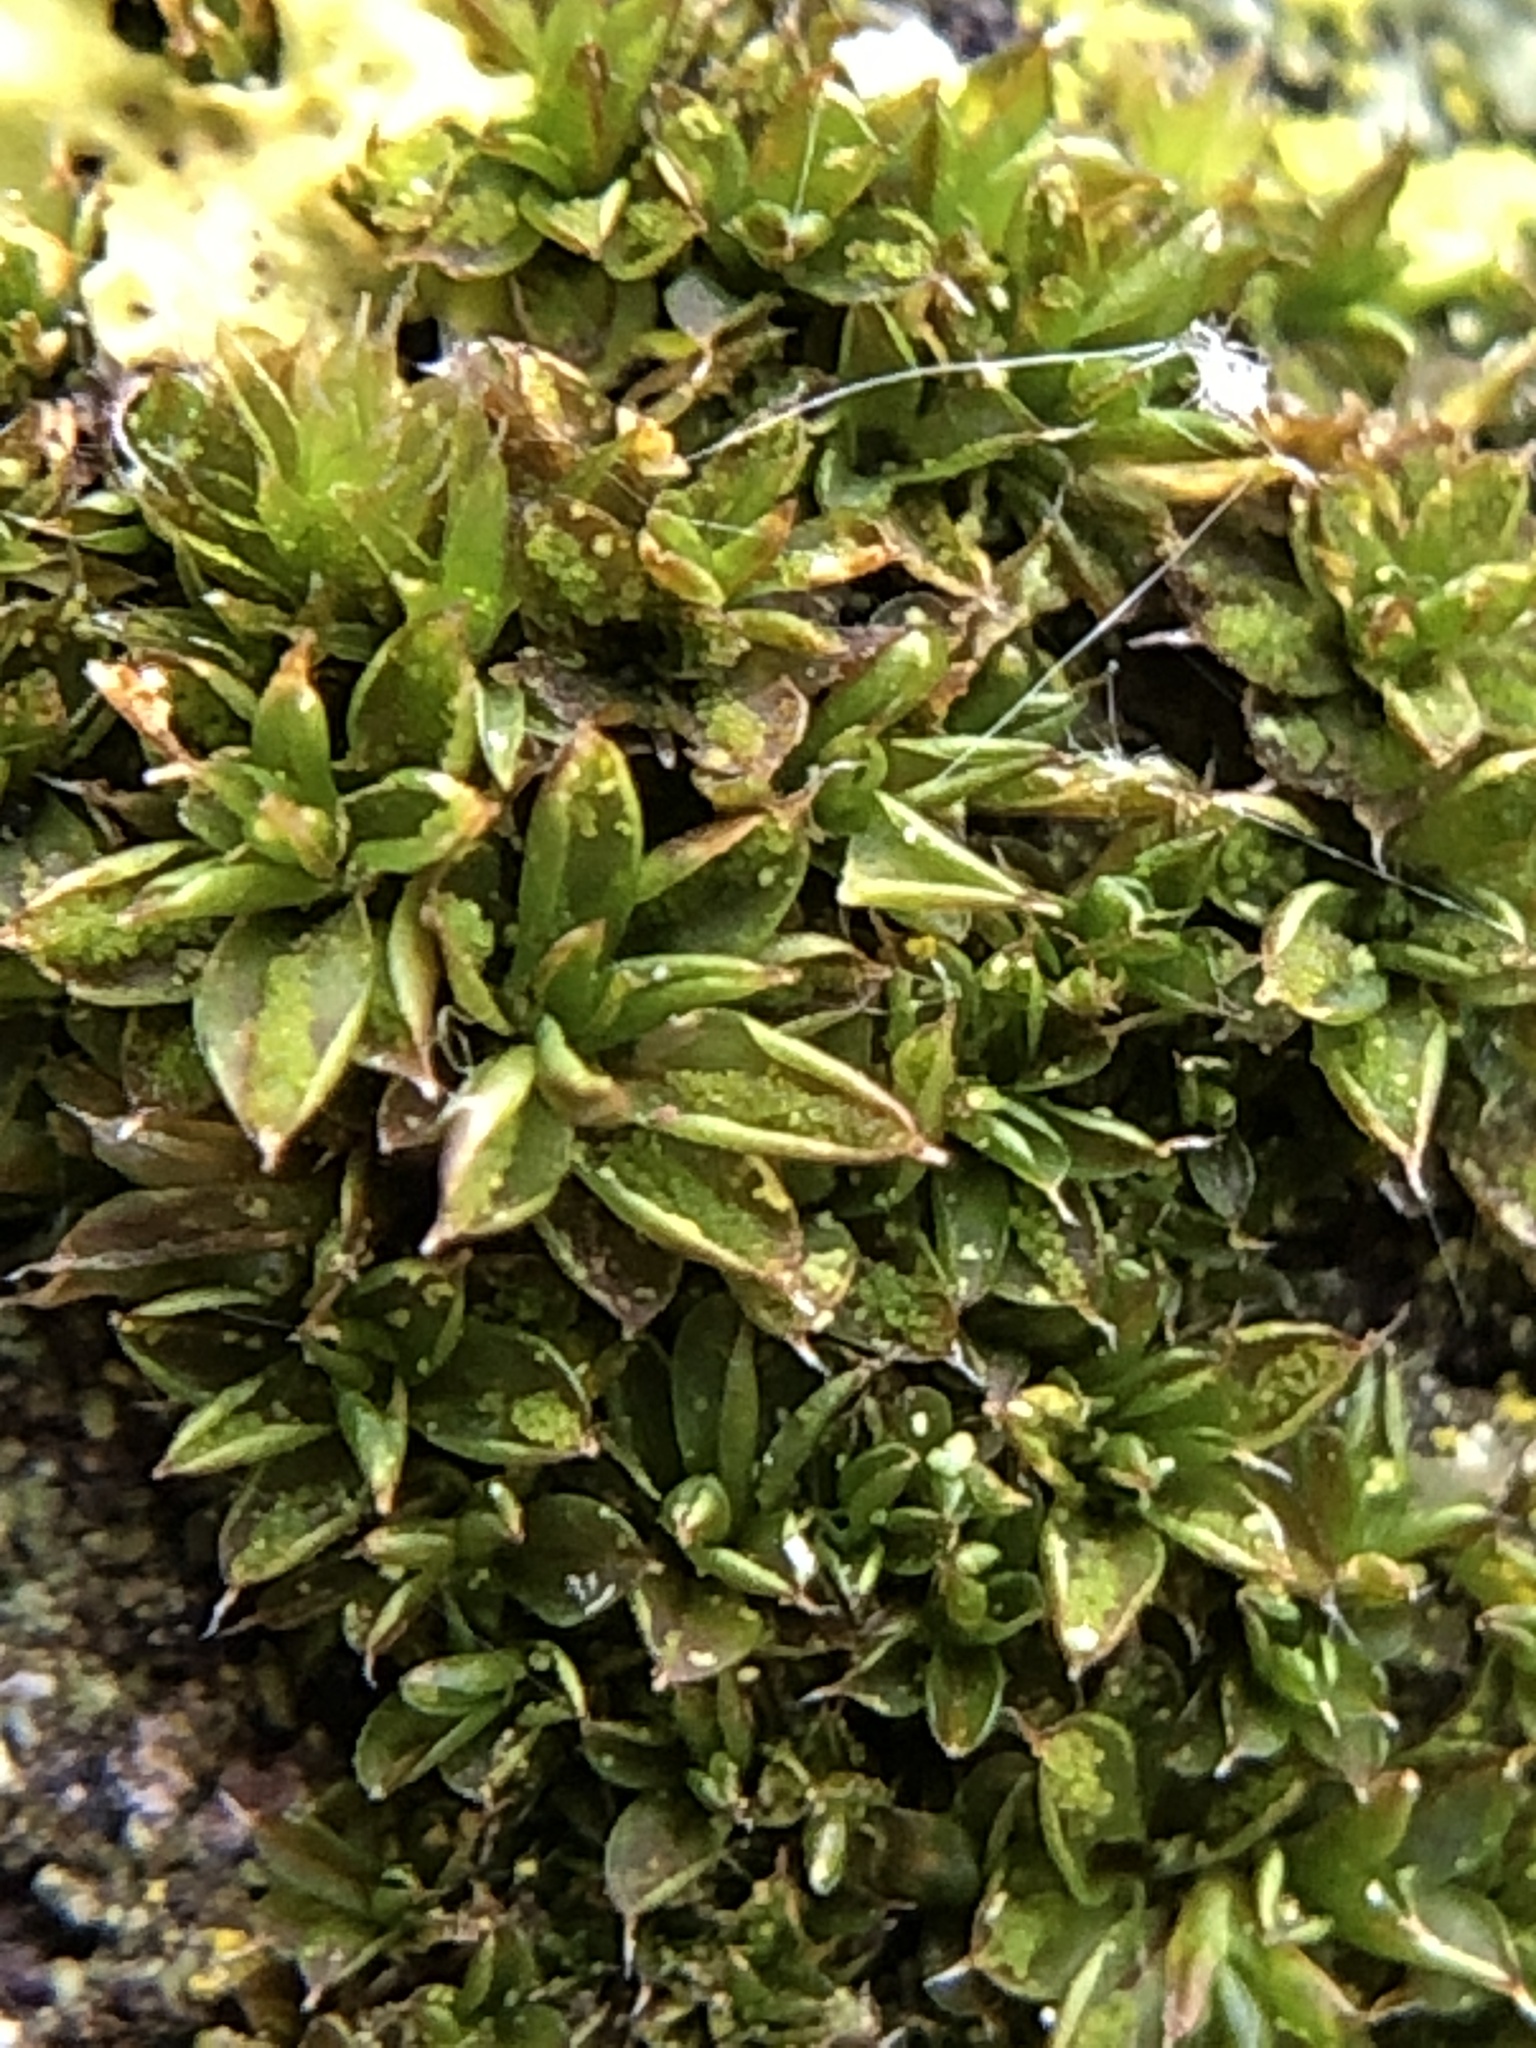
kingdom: Plantae
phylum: Bryophyta
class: Bryopsida
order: Pottiales
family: Pottiaceae
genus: Syntrichia
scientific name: Syntrichia papillosa
